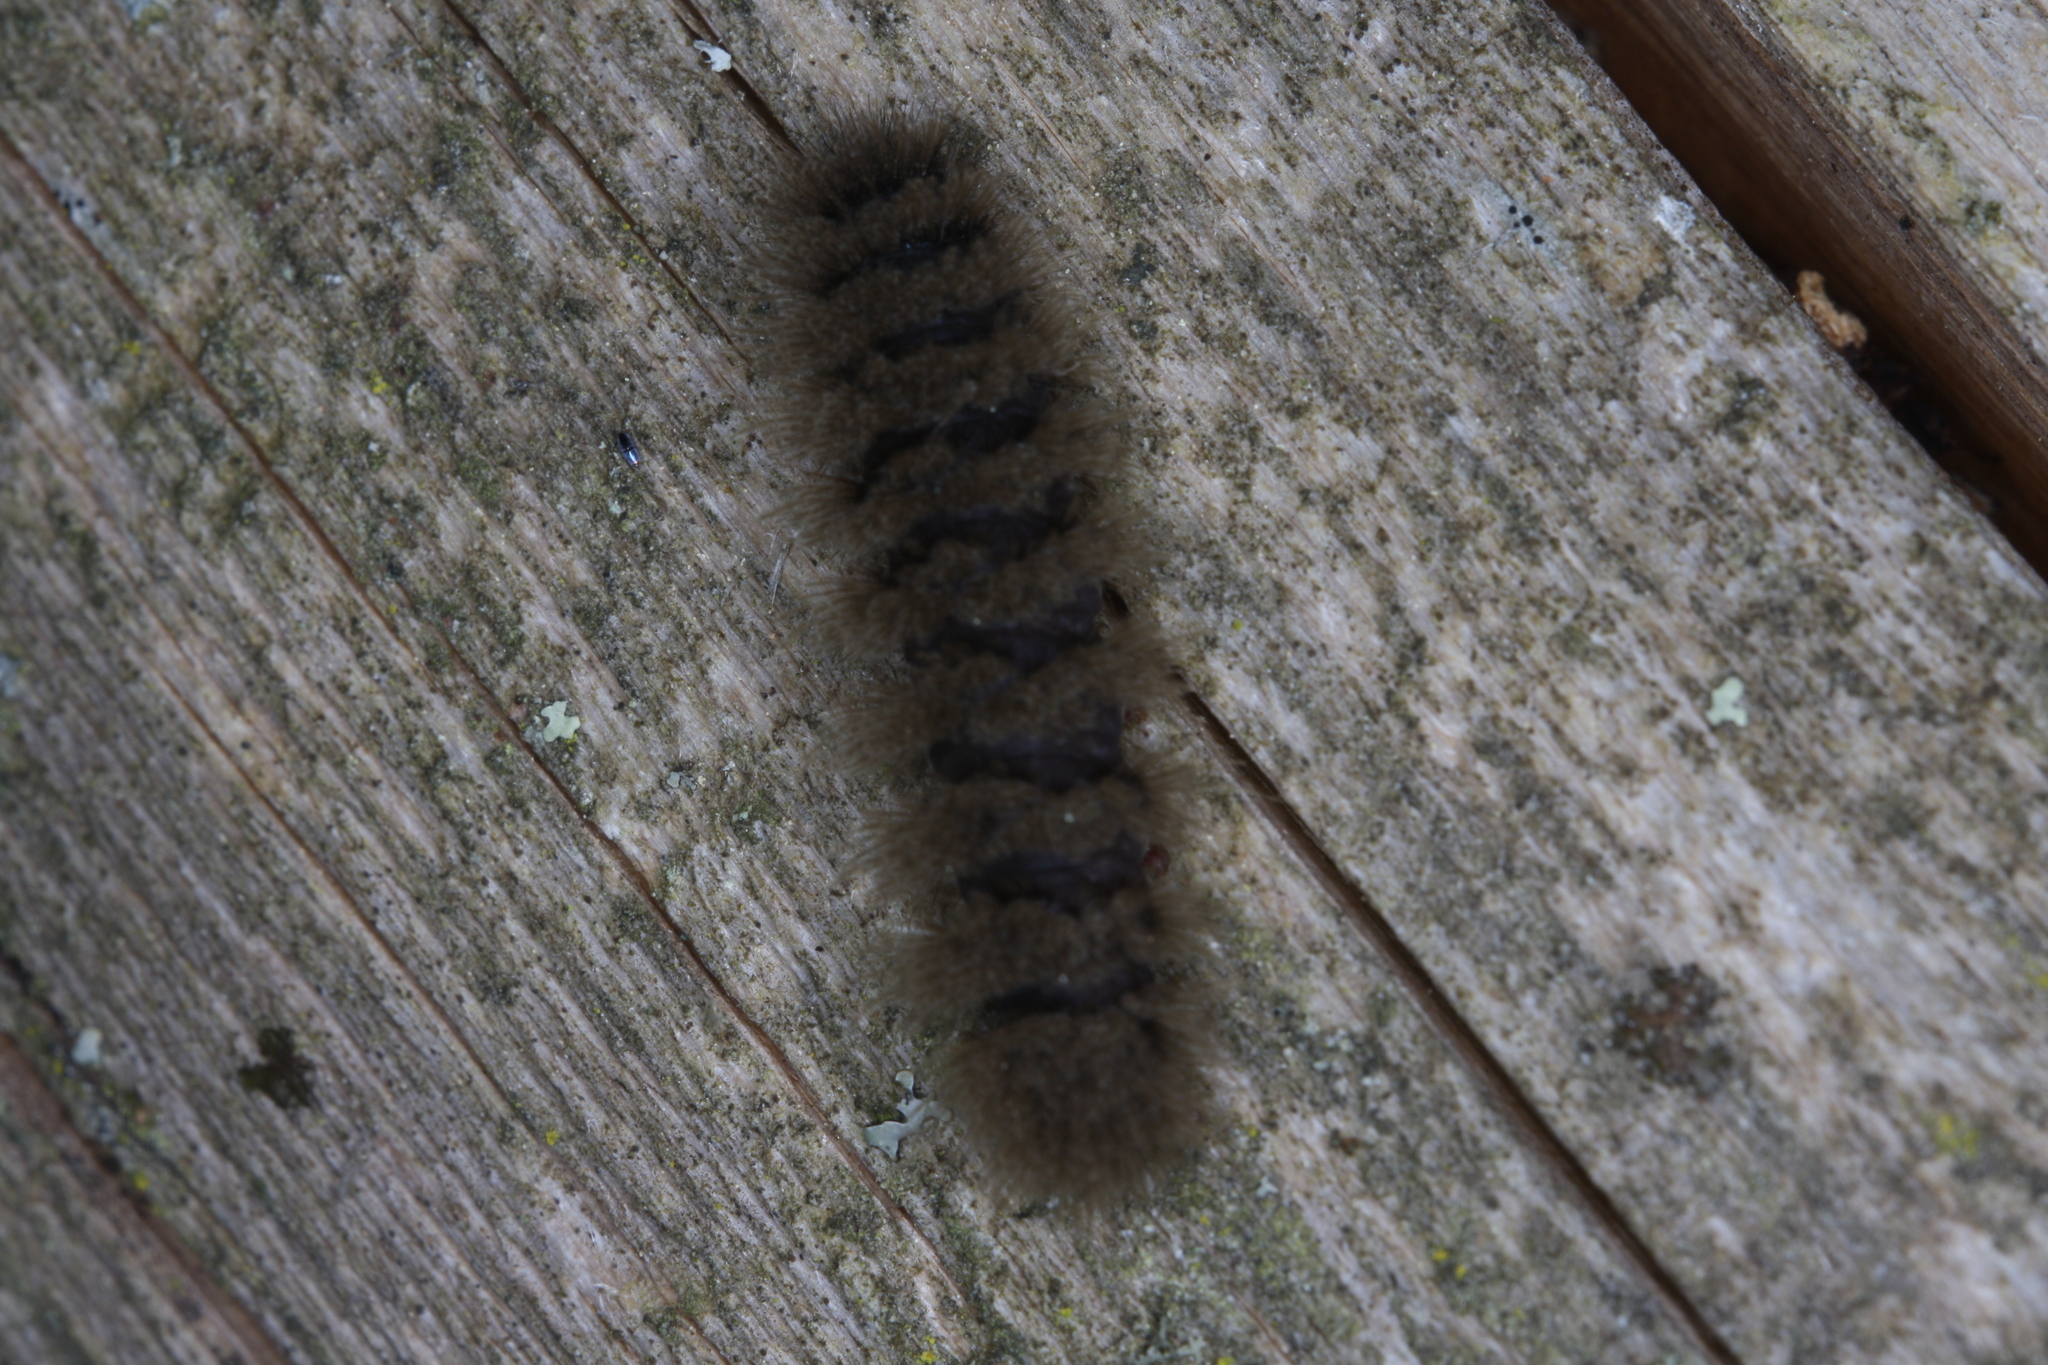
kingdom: Animalia
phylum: Arthropoda
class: Insecta
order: Lepidoptera
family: Erebidae
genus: Amata
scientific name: Amata phegea
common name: Nine-spotted
